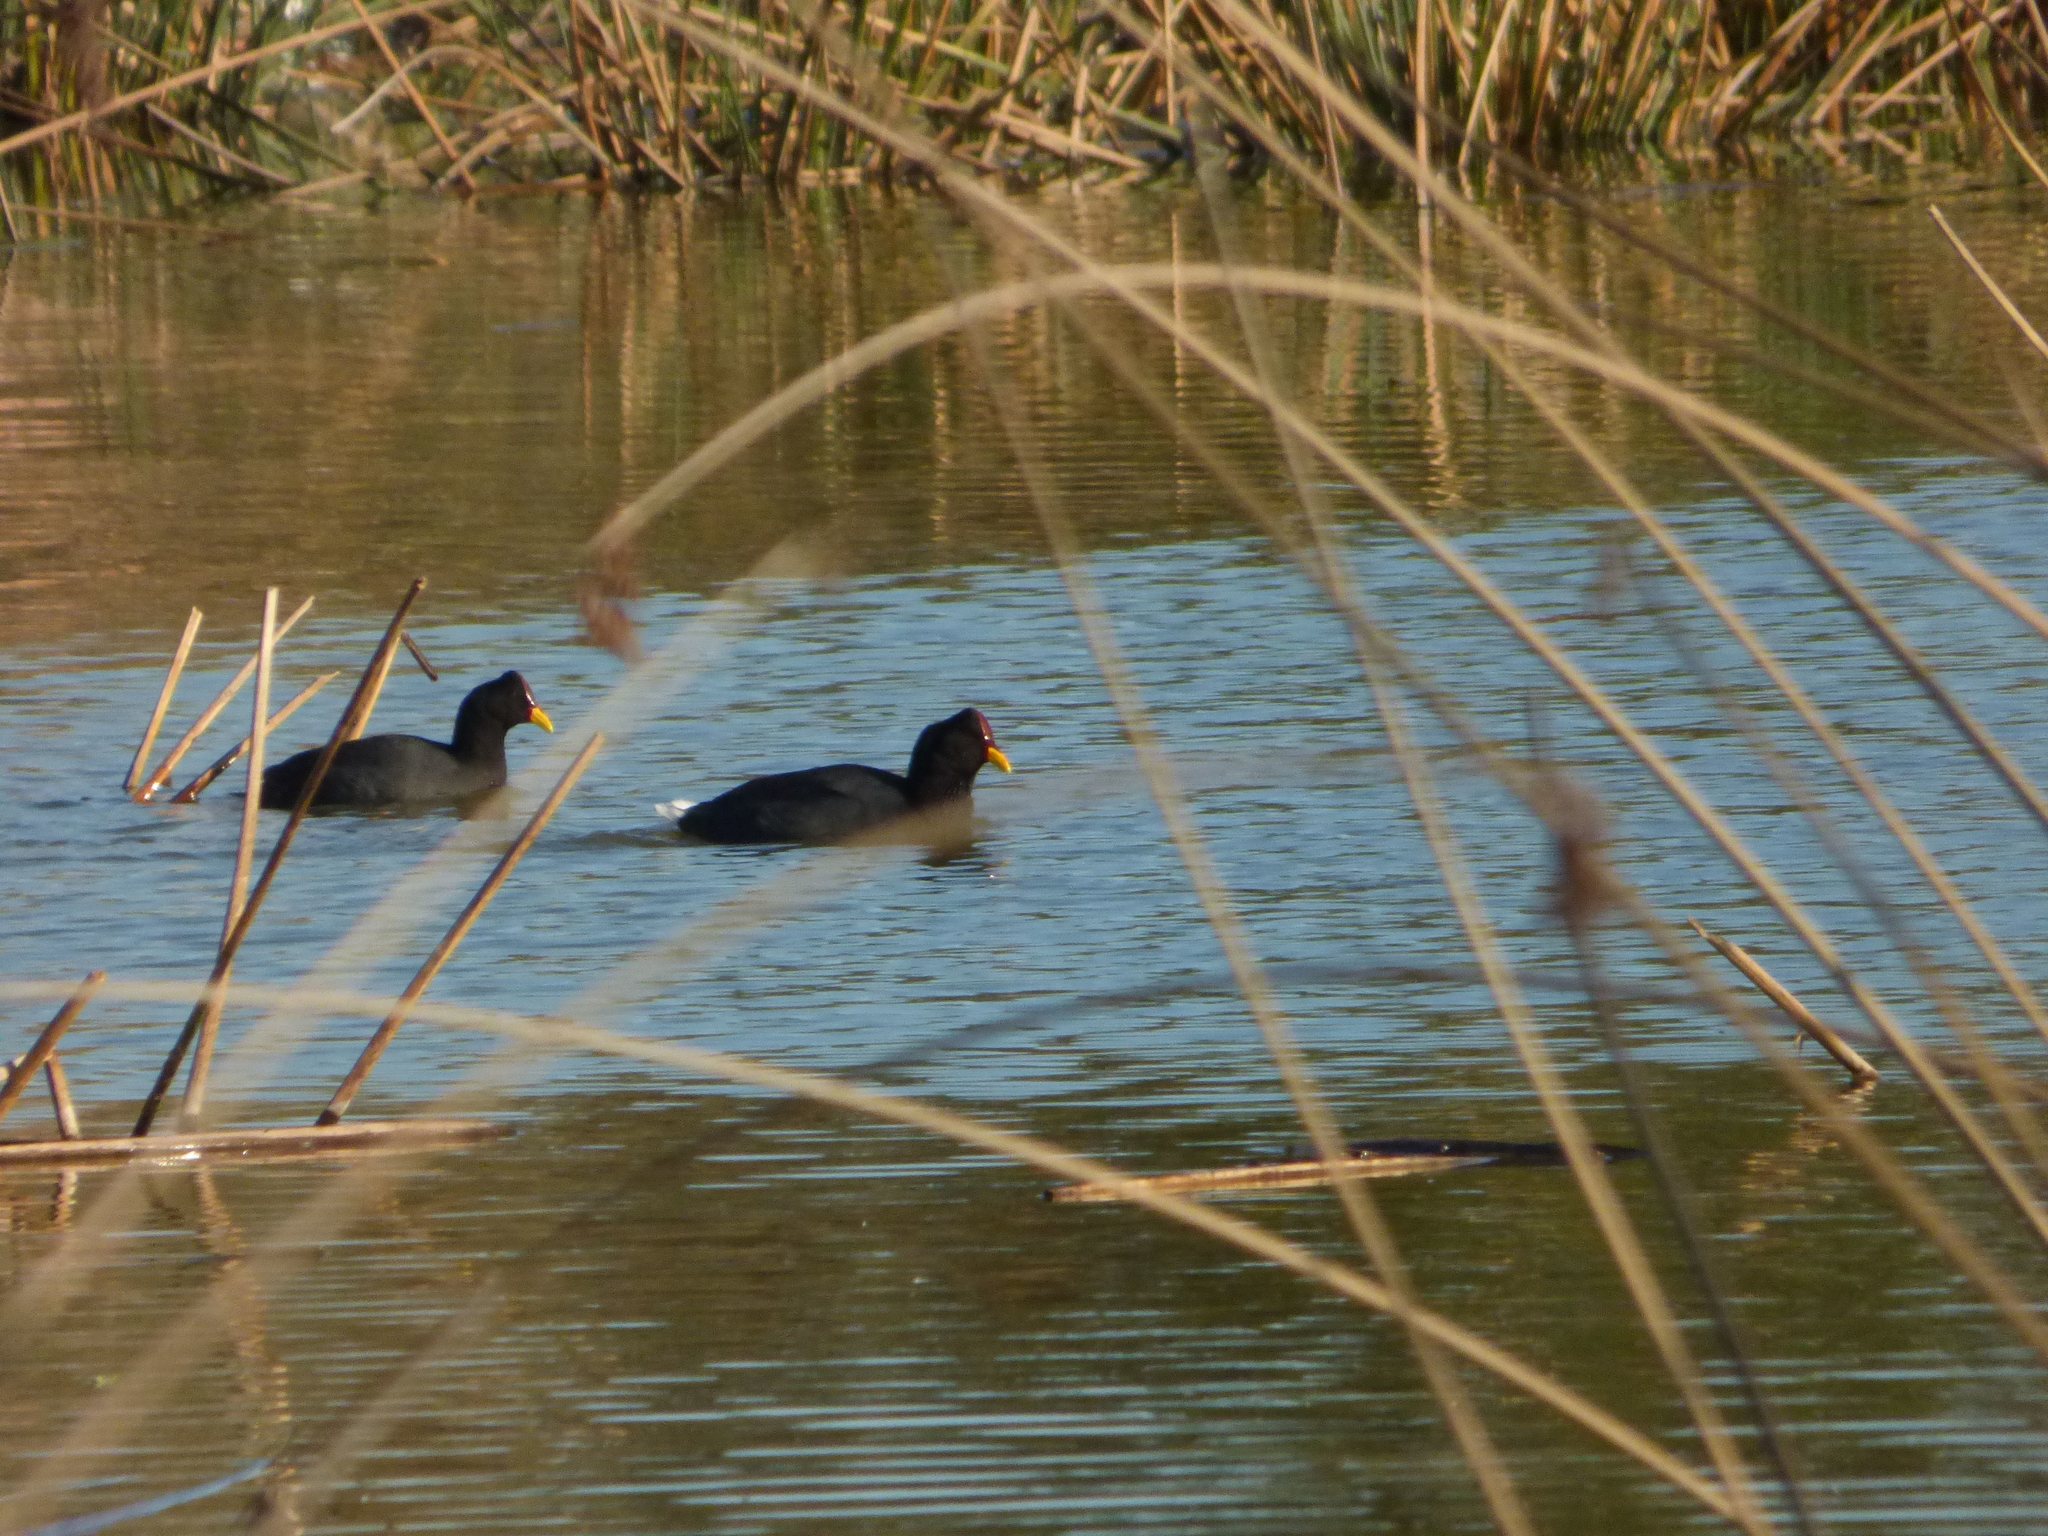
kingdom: Animalia
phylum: Chordata
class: Aves
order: Gruiformes
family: Rallidae
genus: Fulica
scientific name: Fulica rufifrons
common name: Red-fronted coot
